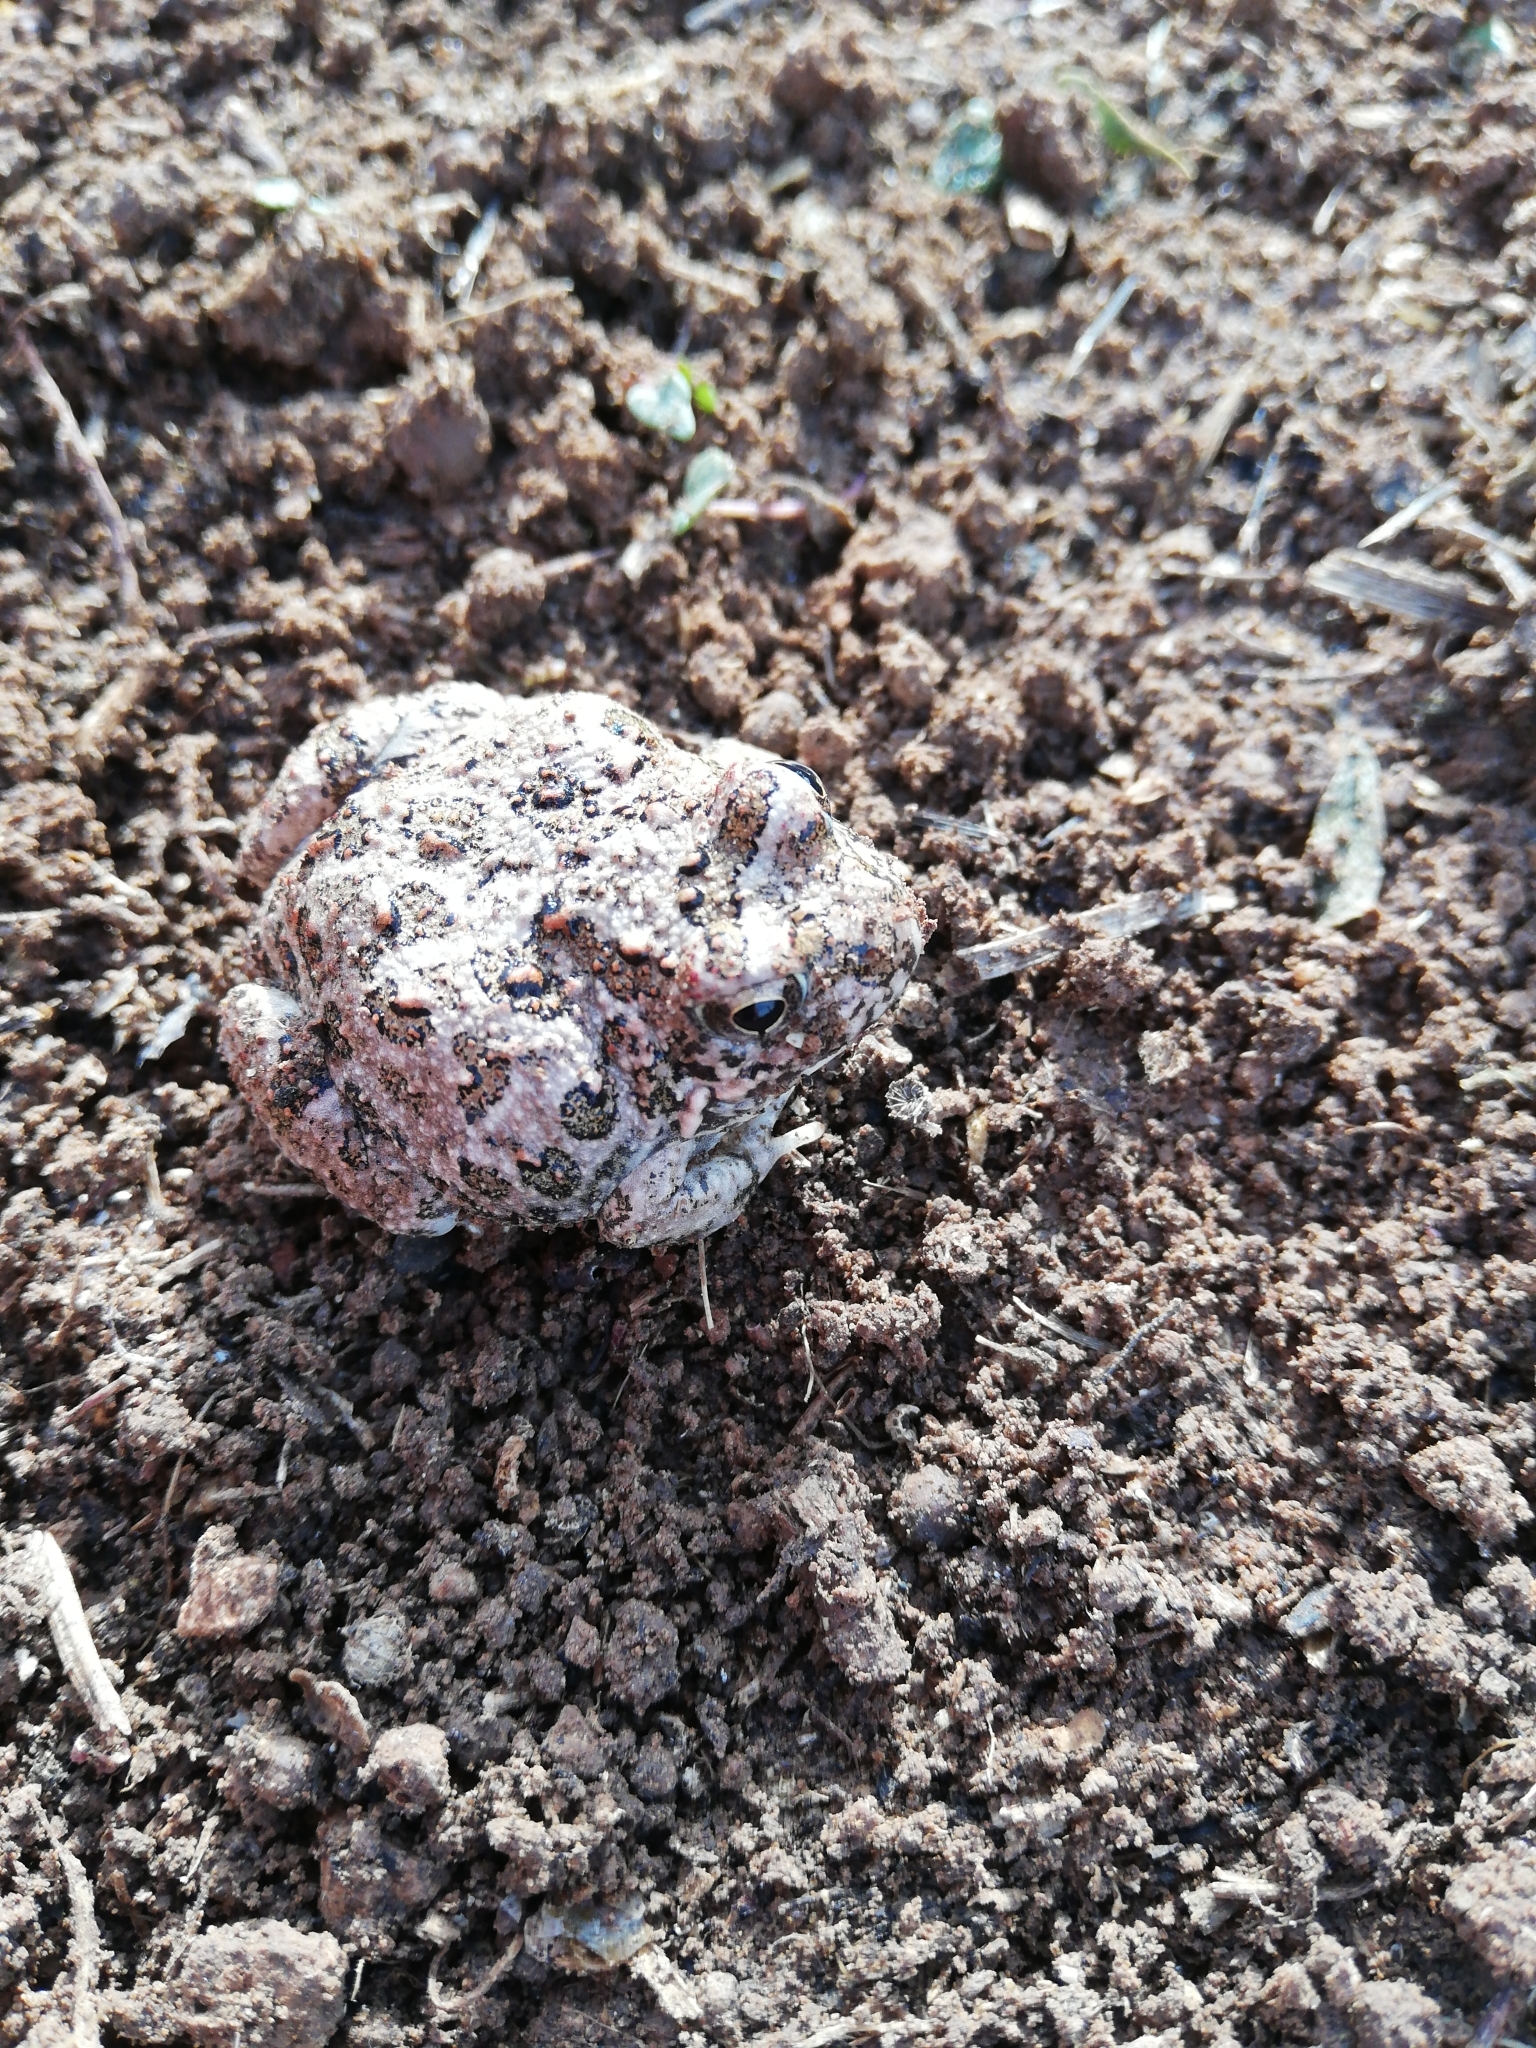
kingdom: Animalia
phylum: Chordata
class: Amphibia
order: Anura
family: Pyxicephalidae
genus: Tomopterna
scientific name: Tomopterna delalandii
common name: Delalande's burrowing bullfrog
